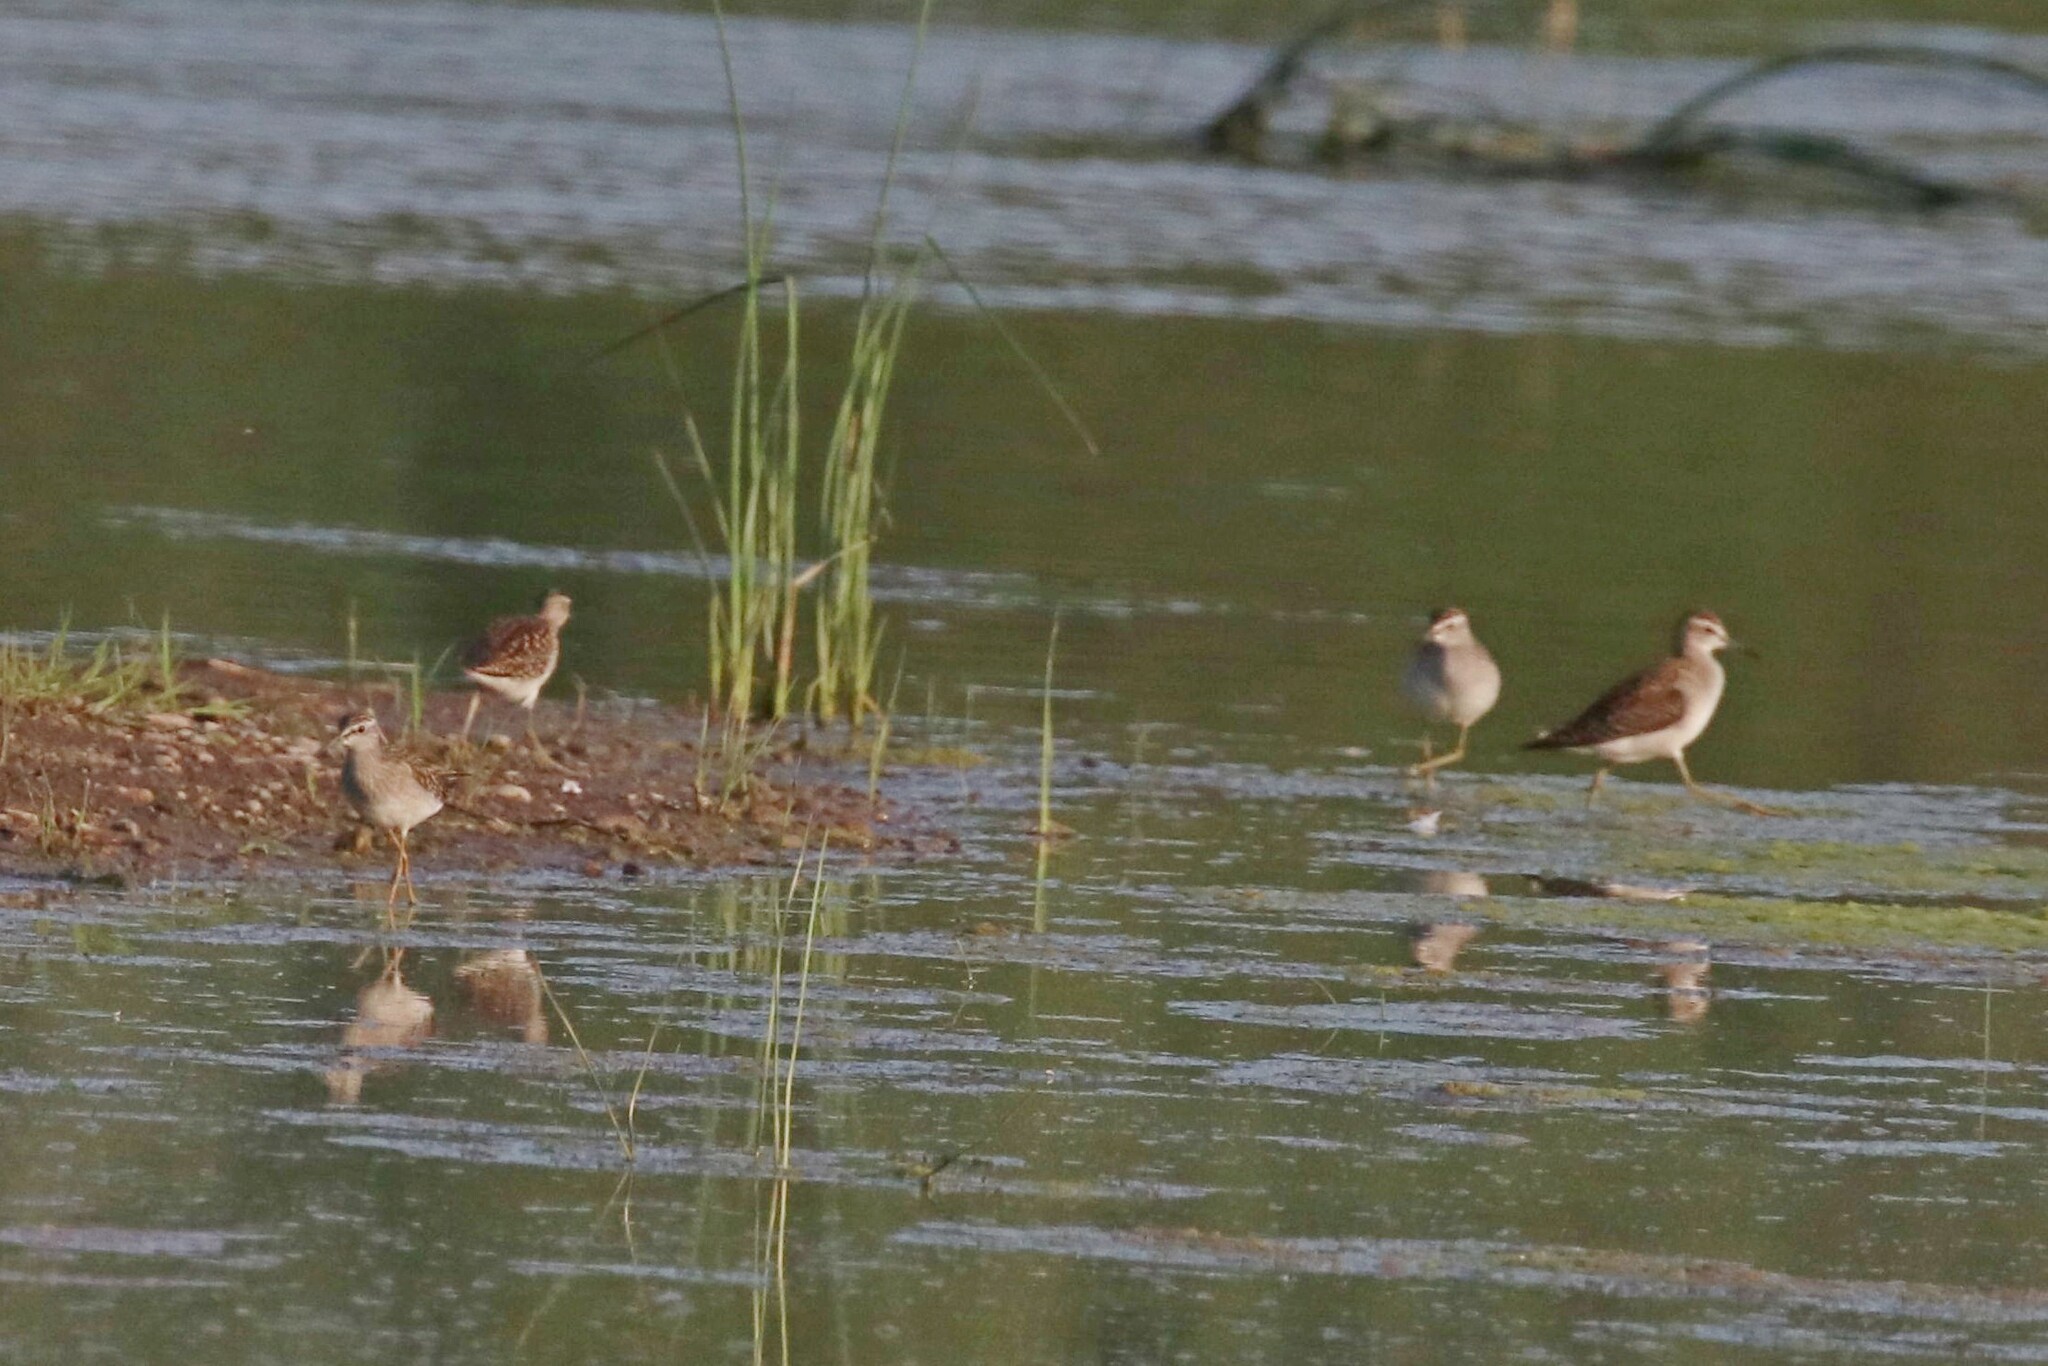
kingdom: Animalia
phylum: Chordata
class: Aves
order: Charadriiformes
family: Scolopacidae
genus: Tringa
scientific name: Tringa glareola
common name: Wood sandpiper
